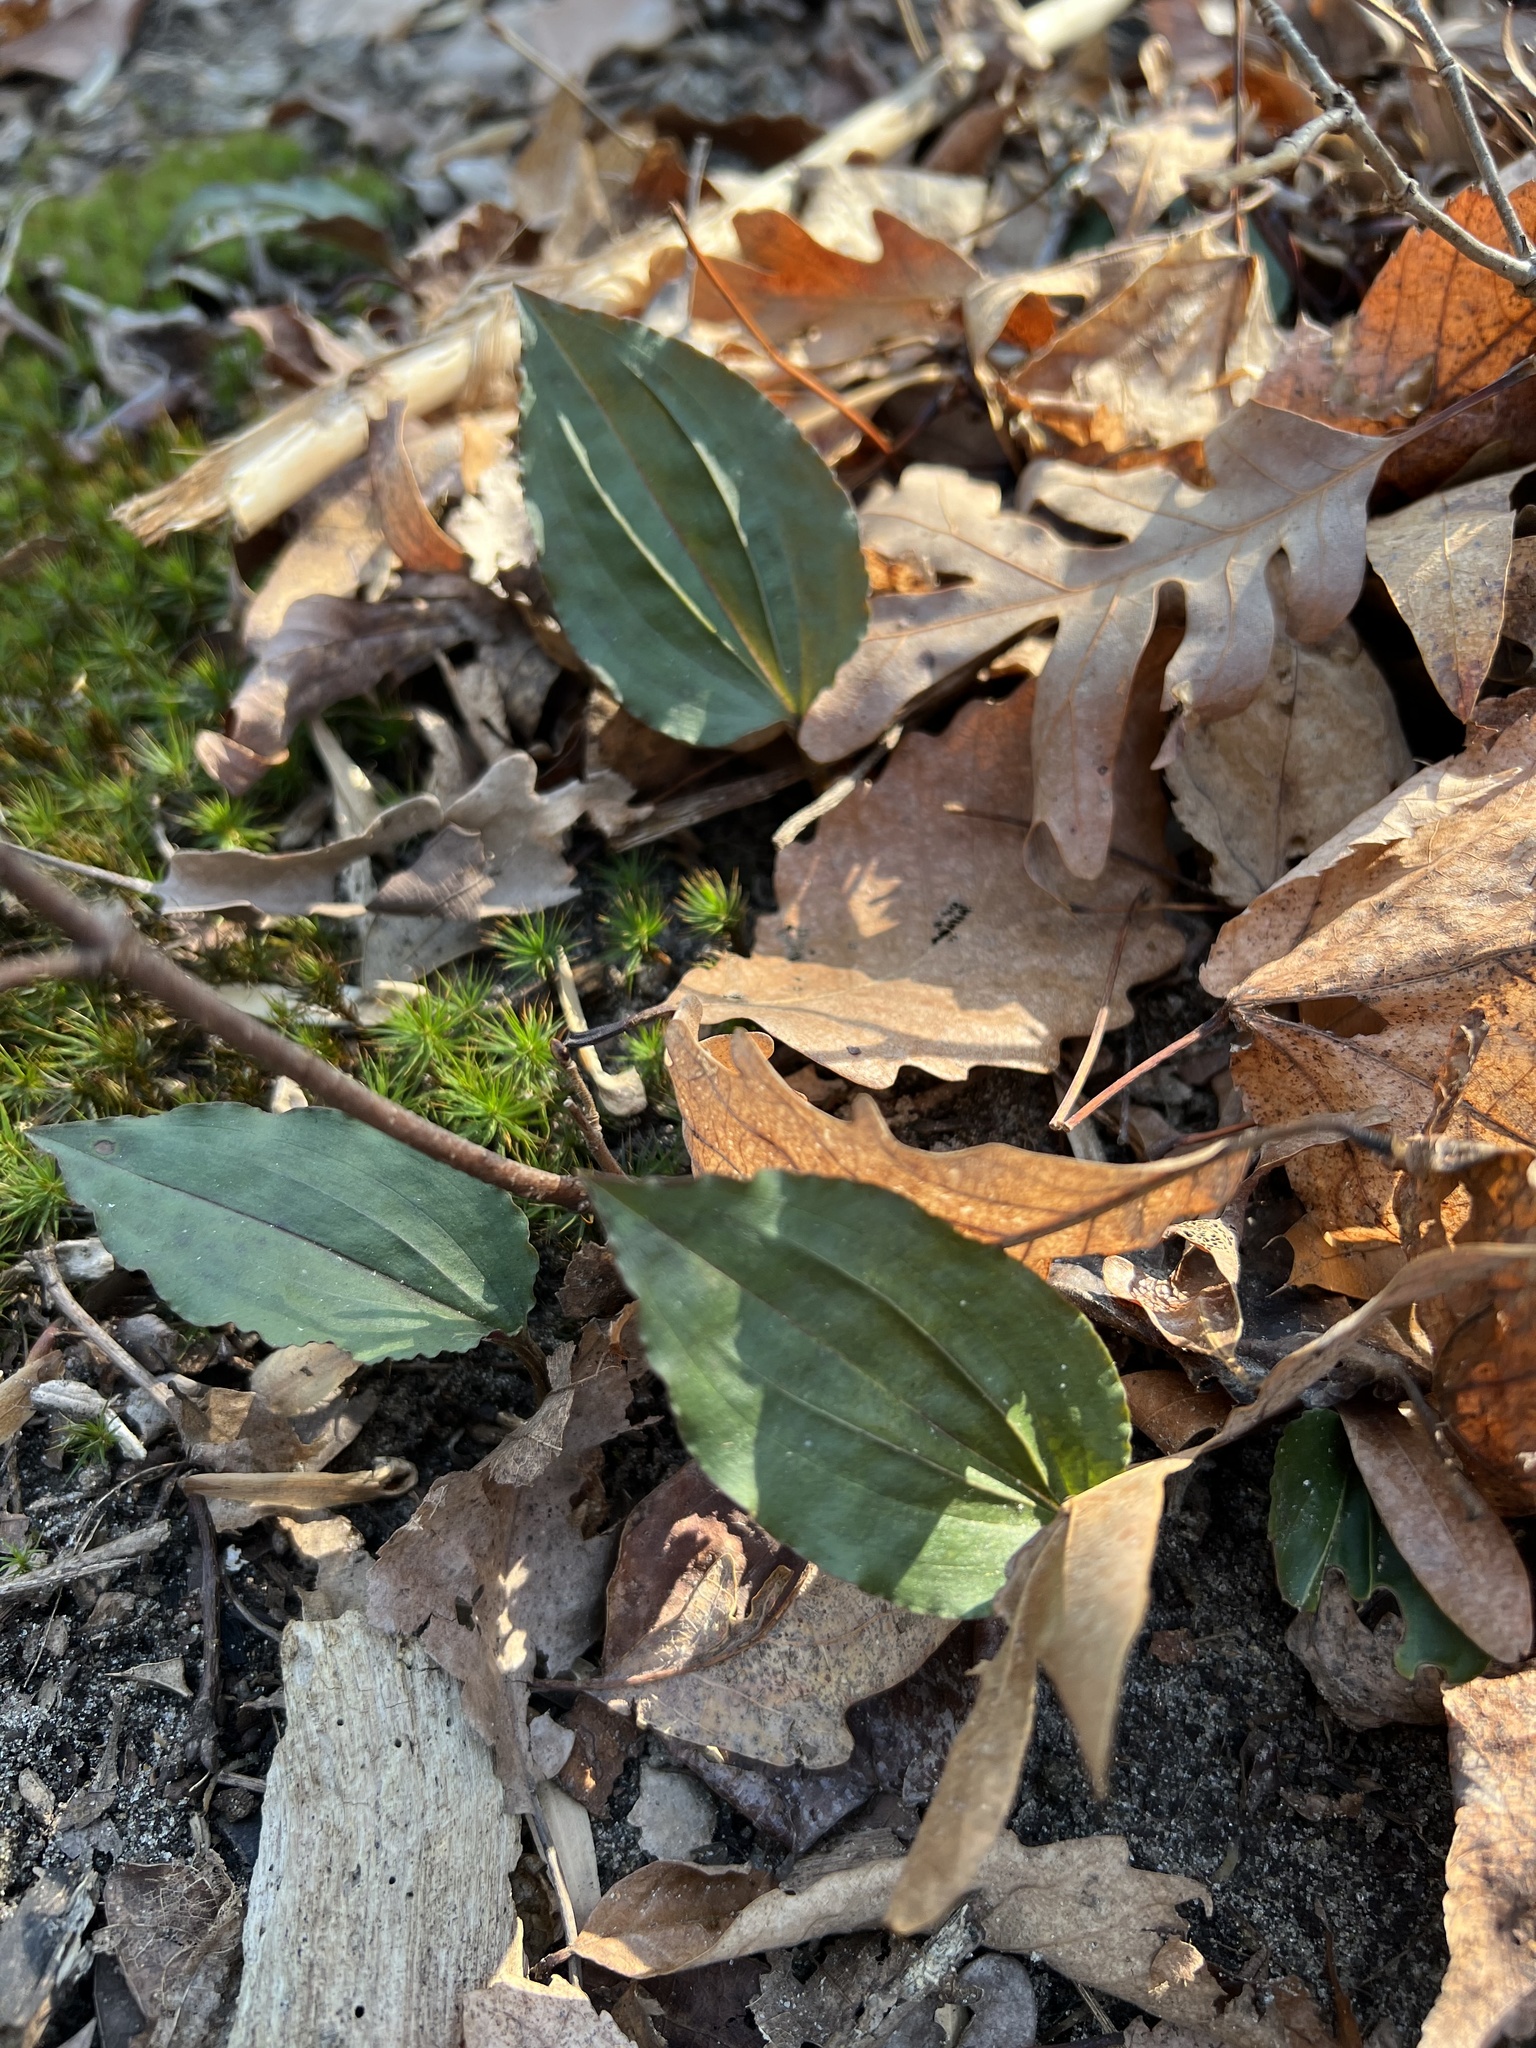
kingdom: Plantae
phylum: Tracheophyta
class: Liliopsida
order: Asparagales
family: Orchidaceae
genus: Tipularia
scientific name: Tipularia discolor
